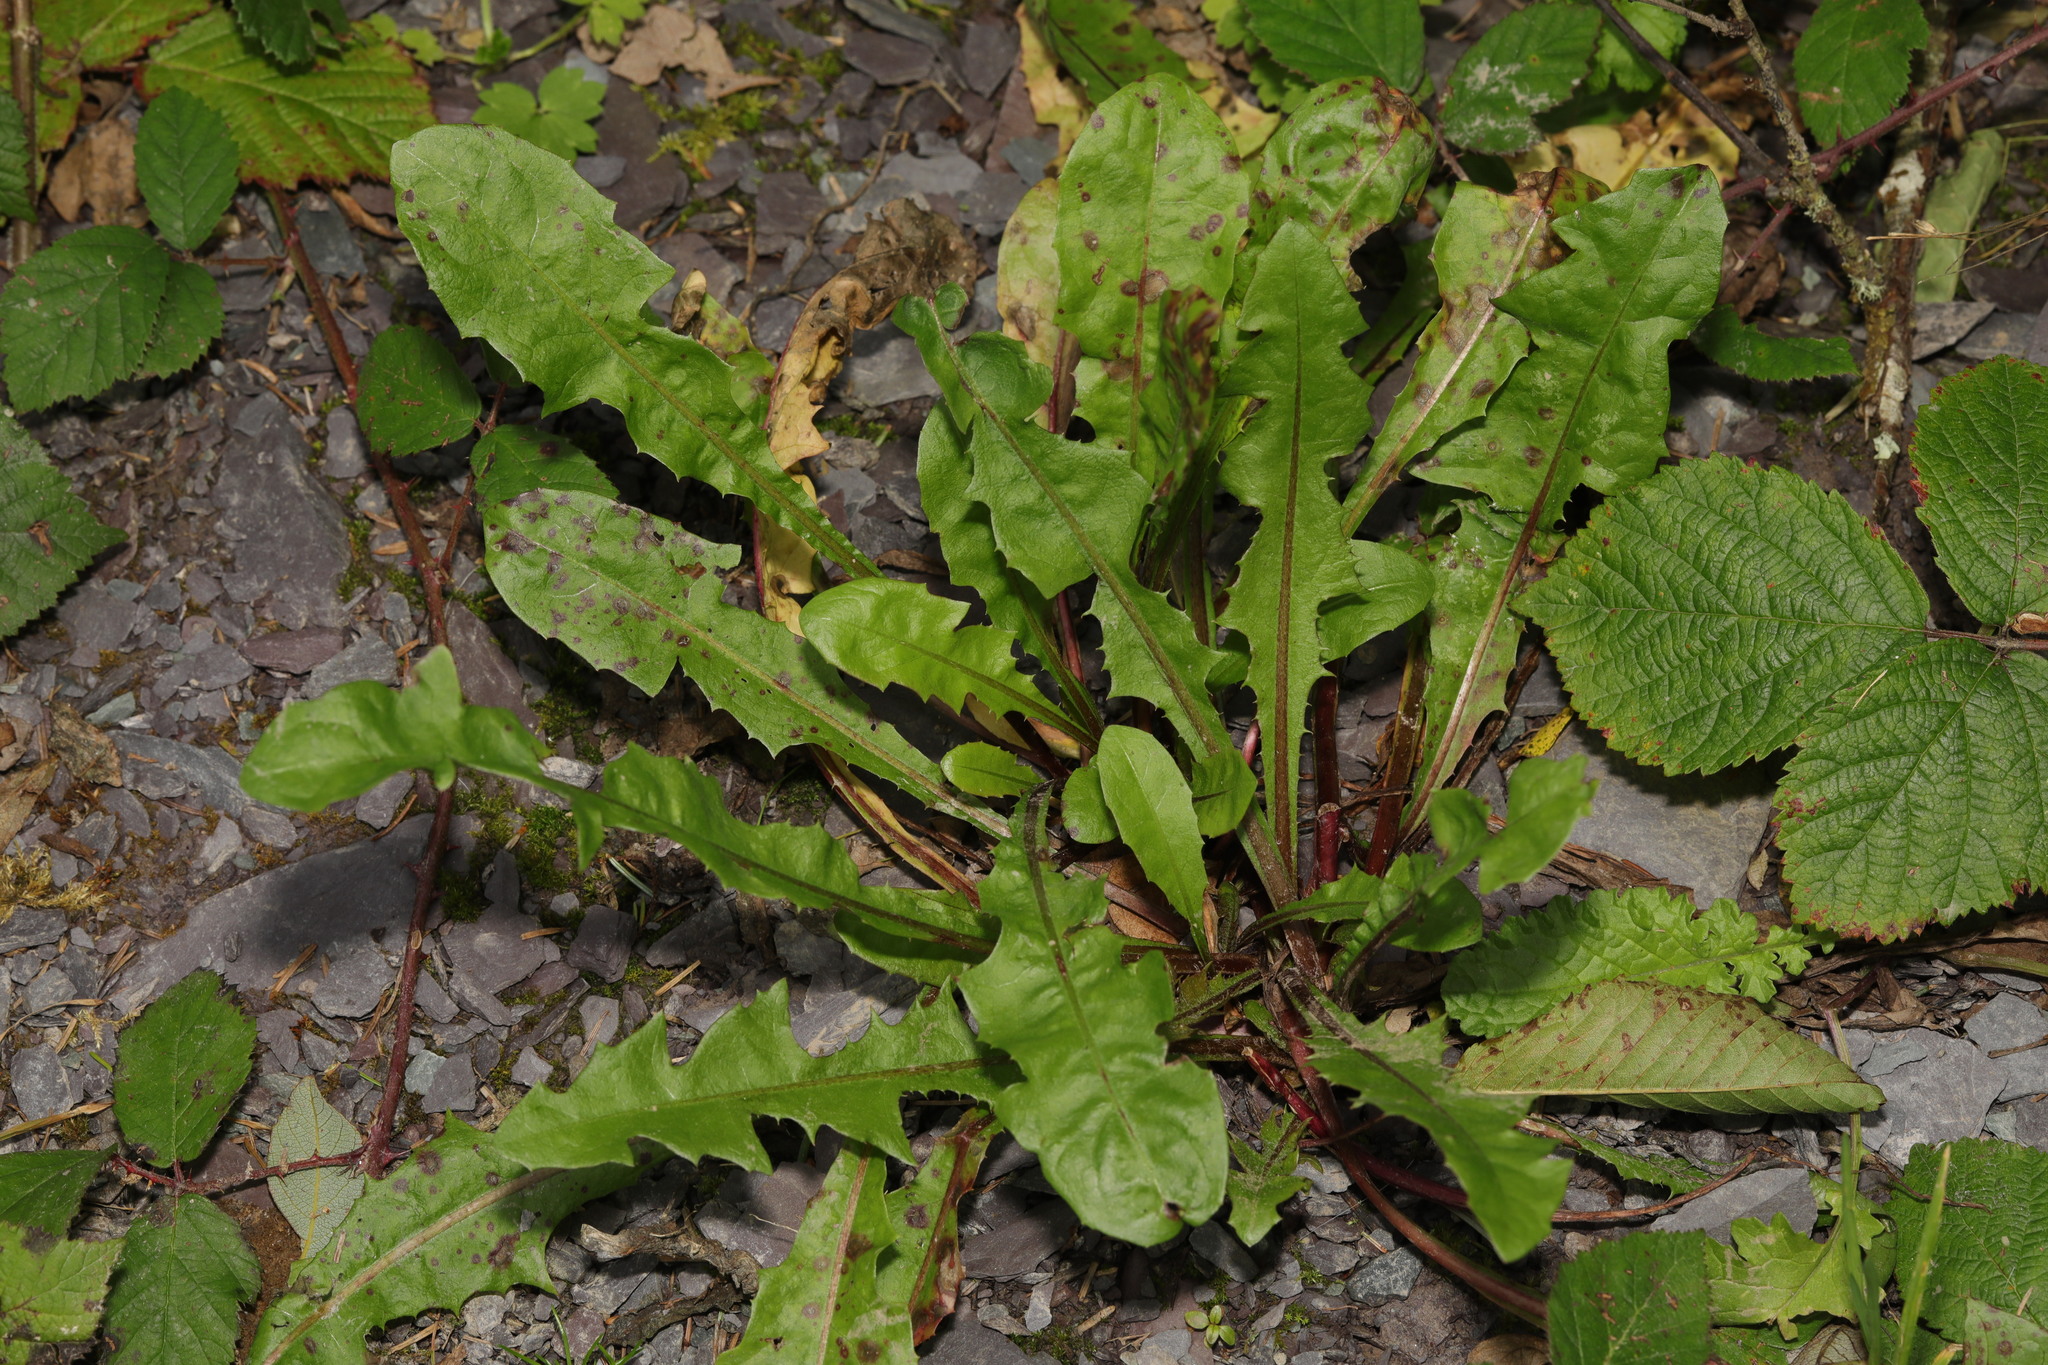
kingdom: Plantae
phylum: Tracheophyta
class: Magnoliopsida
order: Asterales
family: Asteraceae
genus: Taraxacum
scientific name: Taraxacum officinale
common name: Common dandelion
